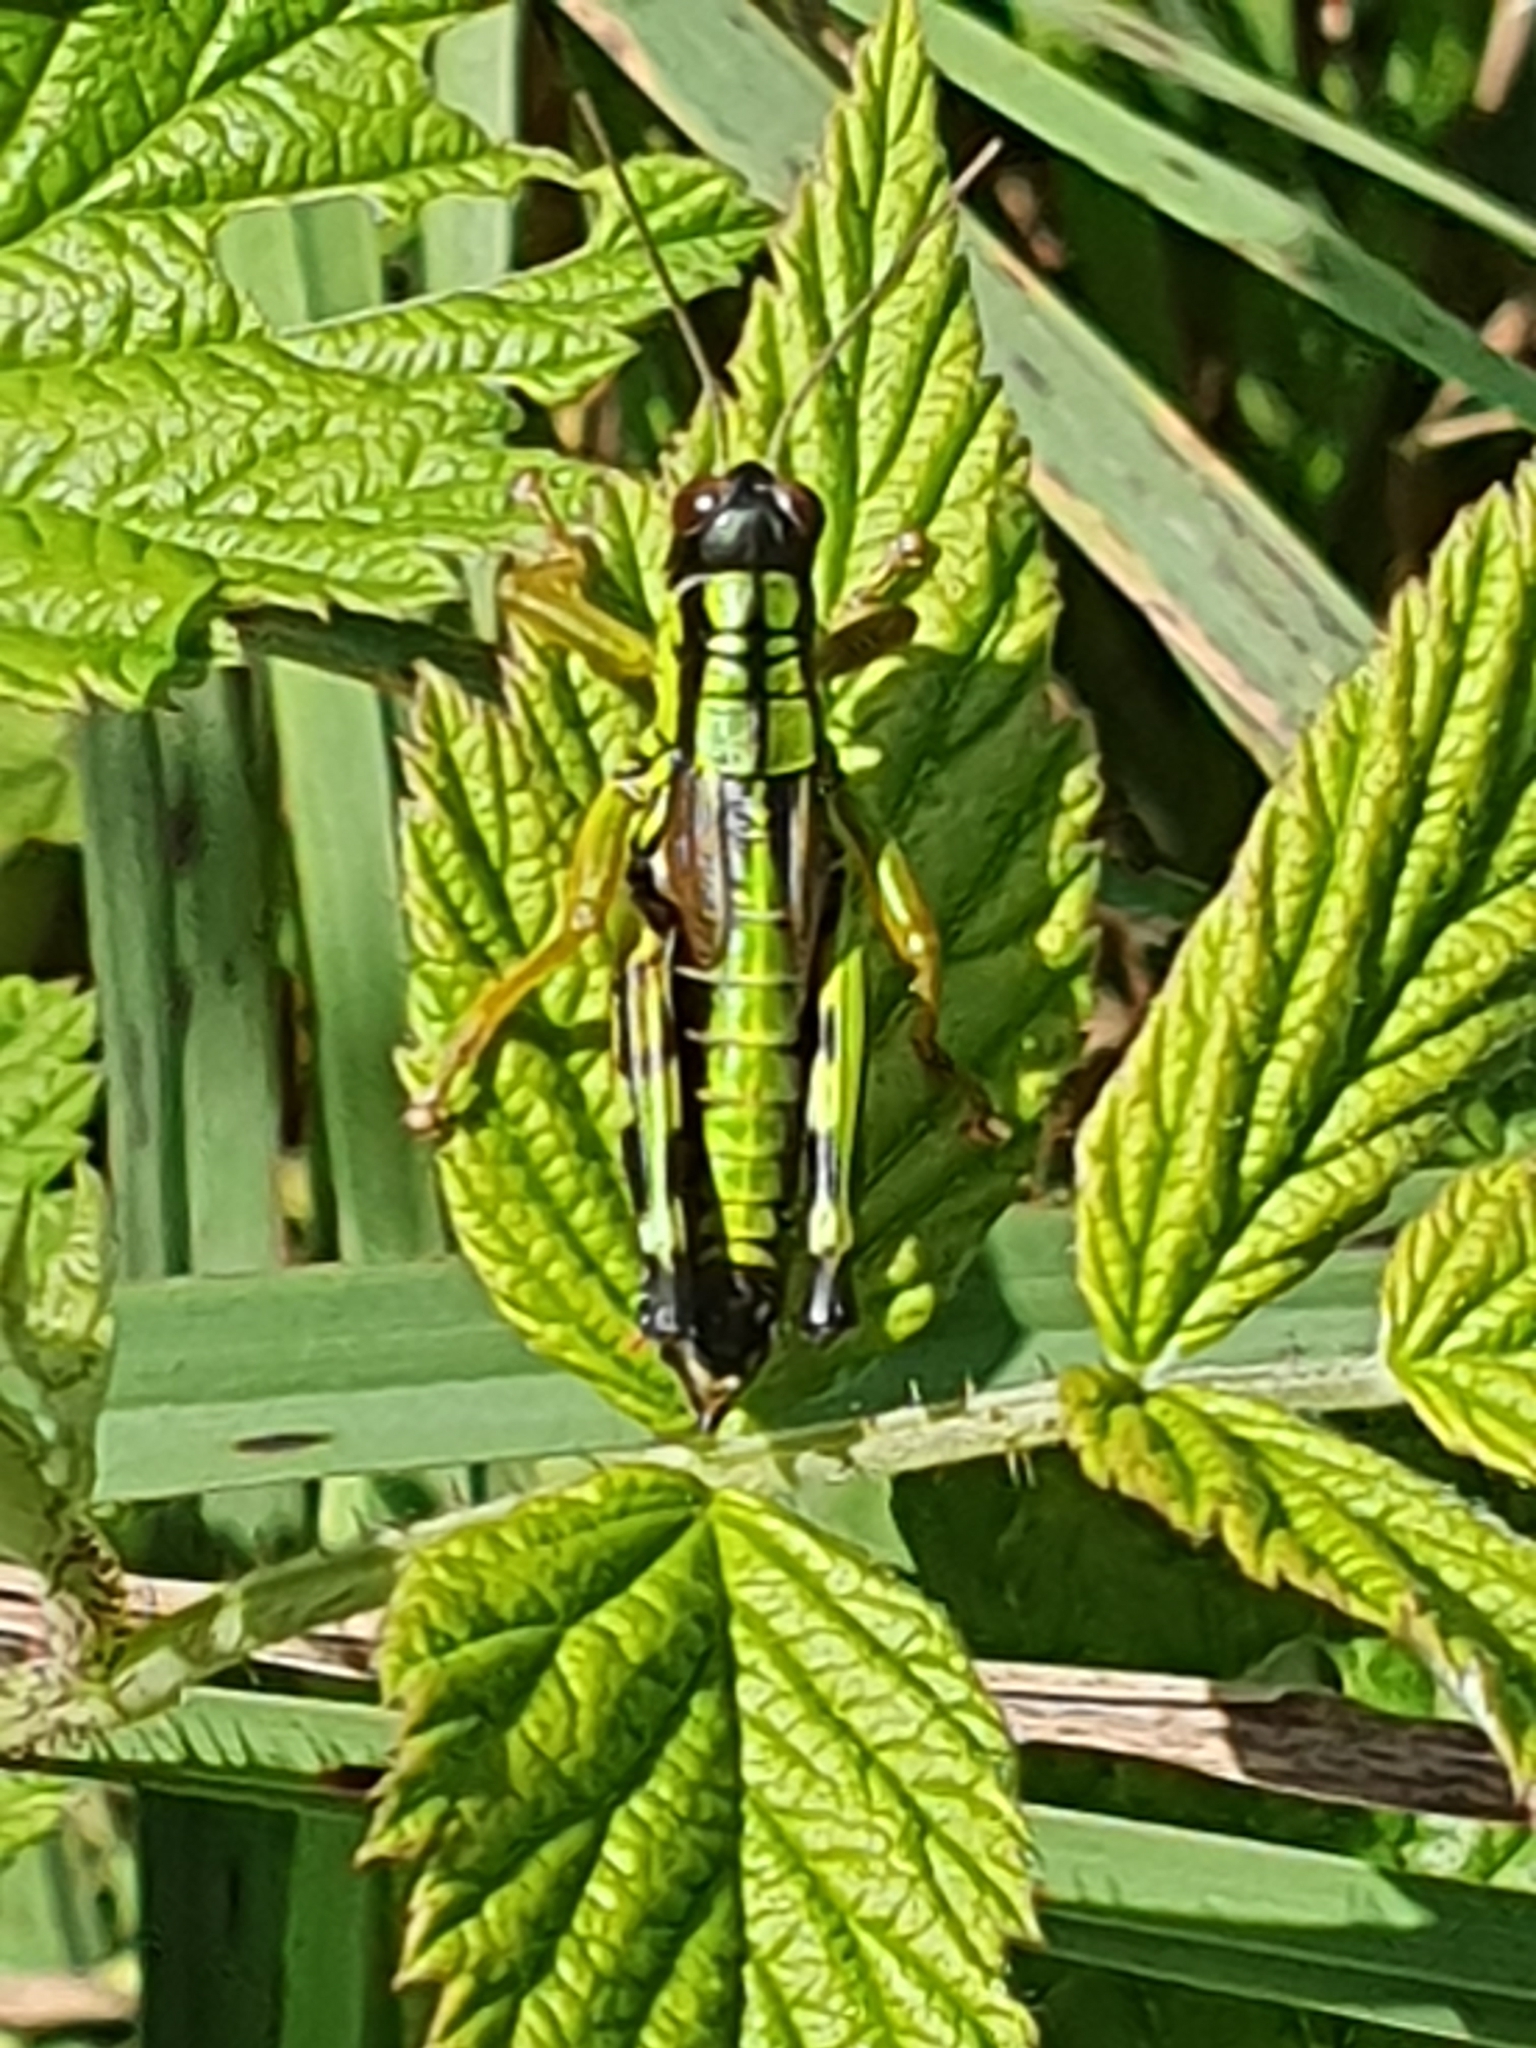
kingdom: Animalia
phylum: Arthropoda
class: Insecta
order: Orthoptera
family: Acrididae
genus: Miramella
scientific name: Miramella alpina
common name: Green mountain grasshopper
